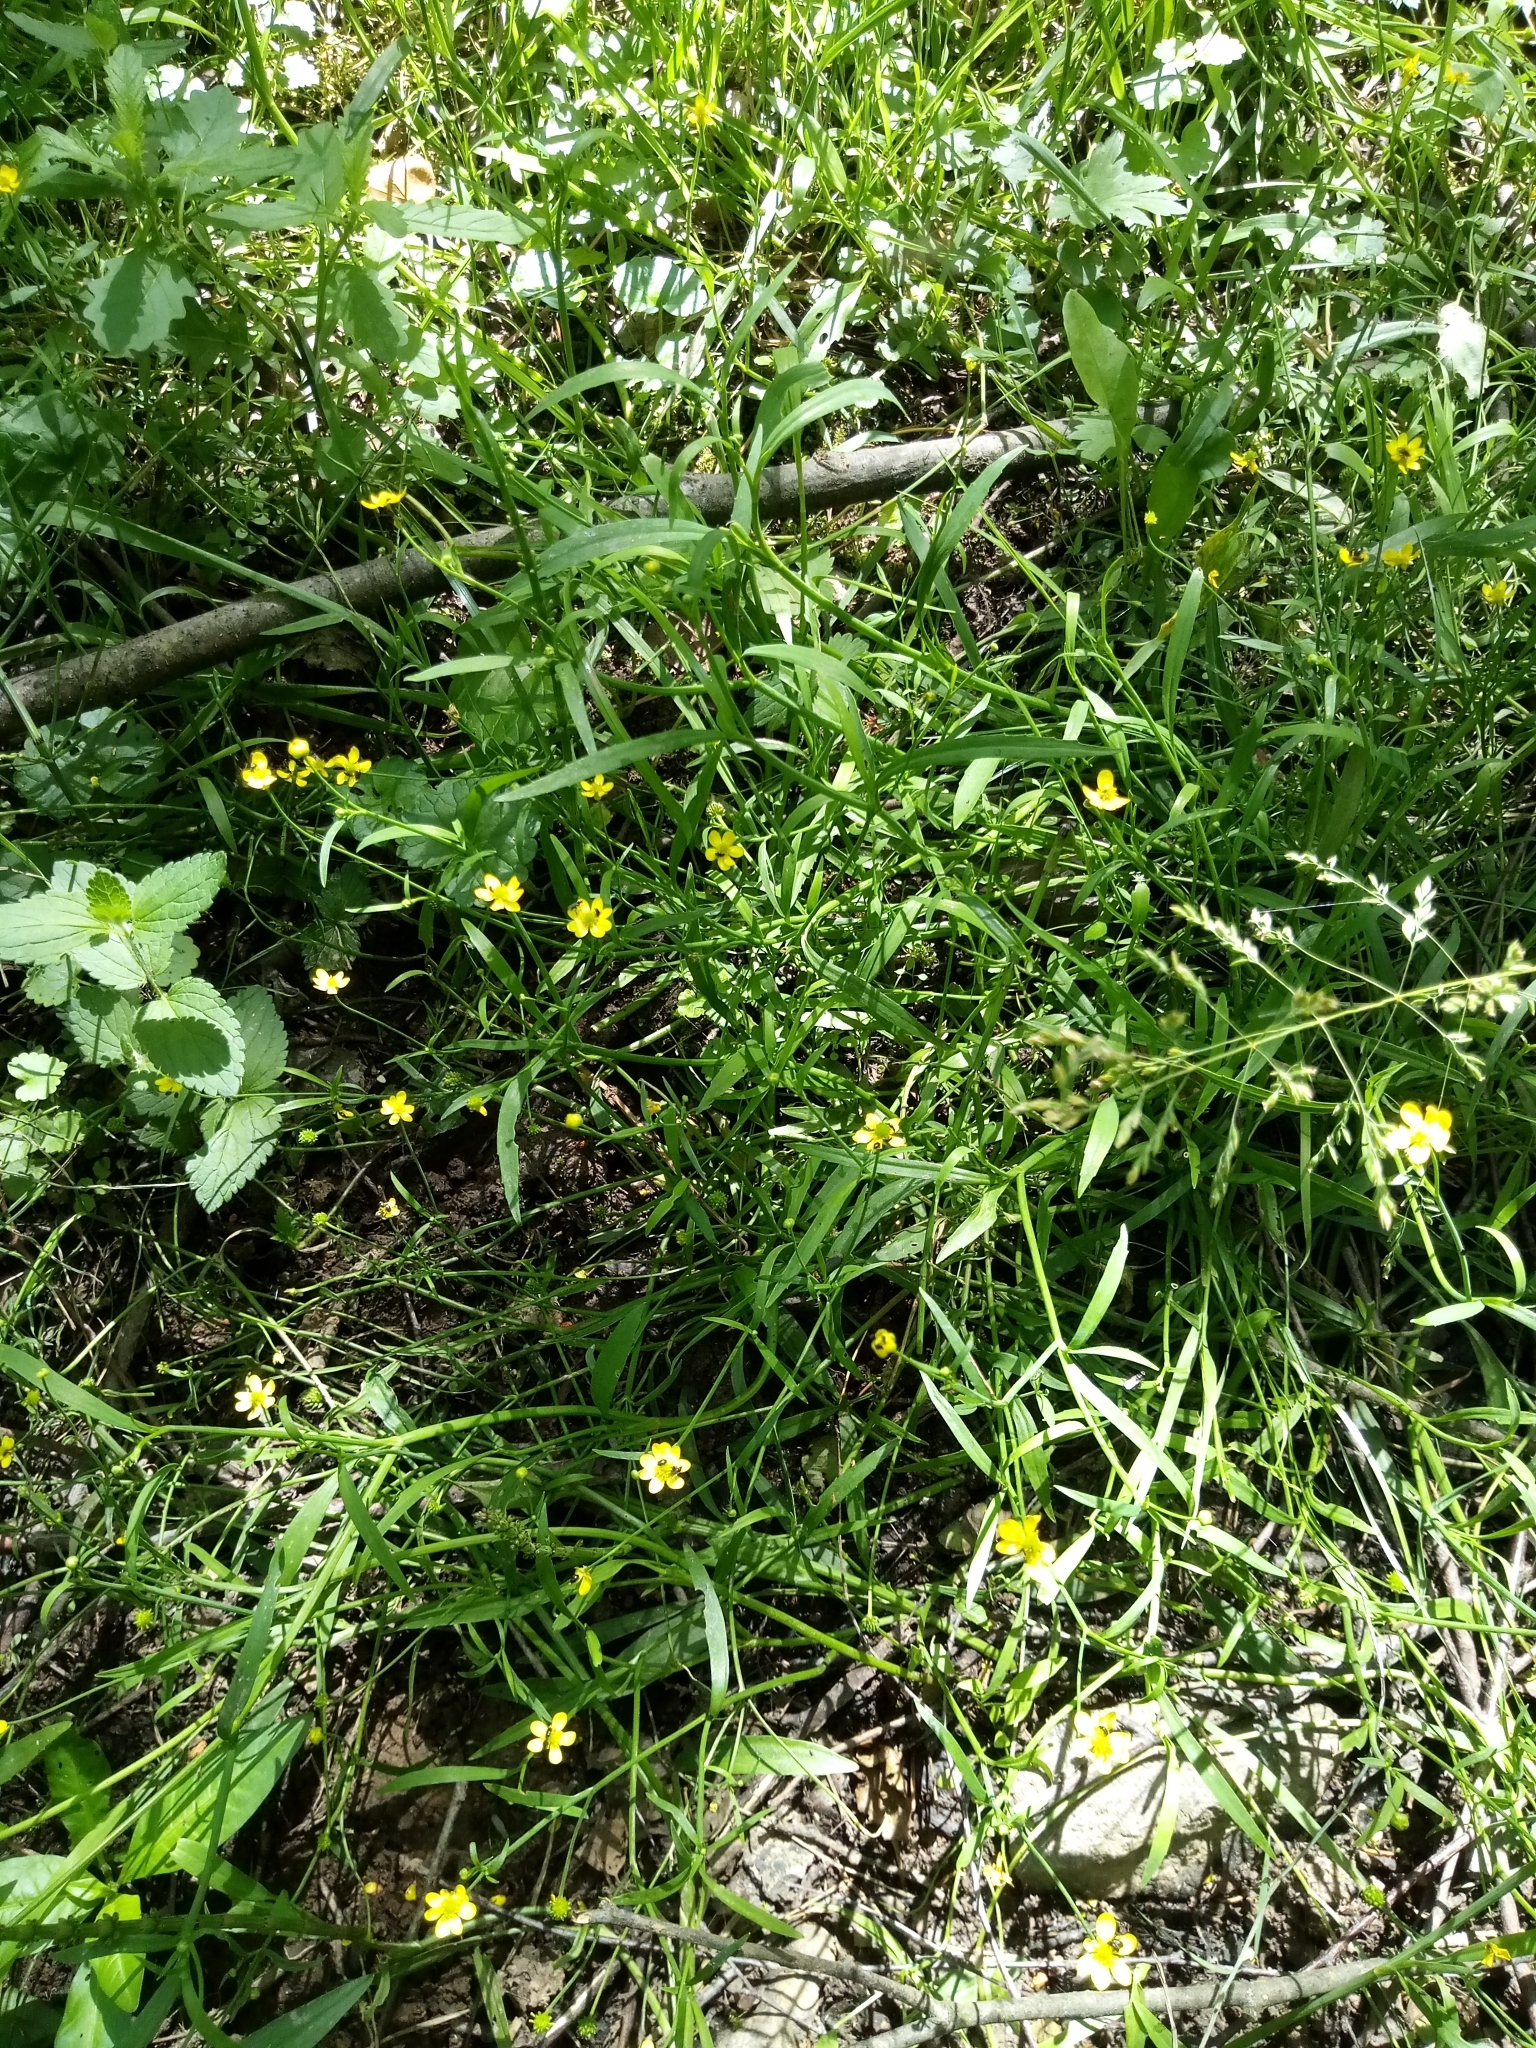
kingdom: Plantae
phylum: Tracheophyta
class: Magnoliopsida
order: Ranunculales
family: Ranunculaceae
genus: Ranunculus
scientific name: Ranunculus flammula
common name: Lesser spearwort
